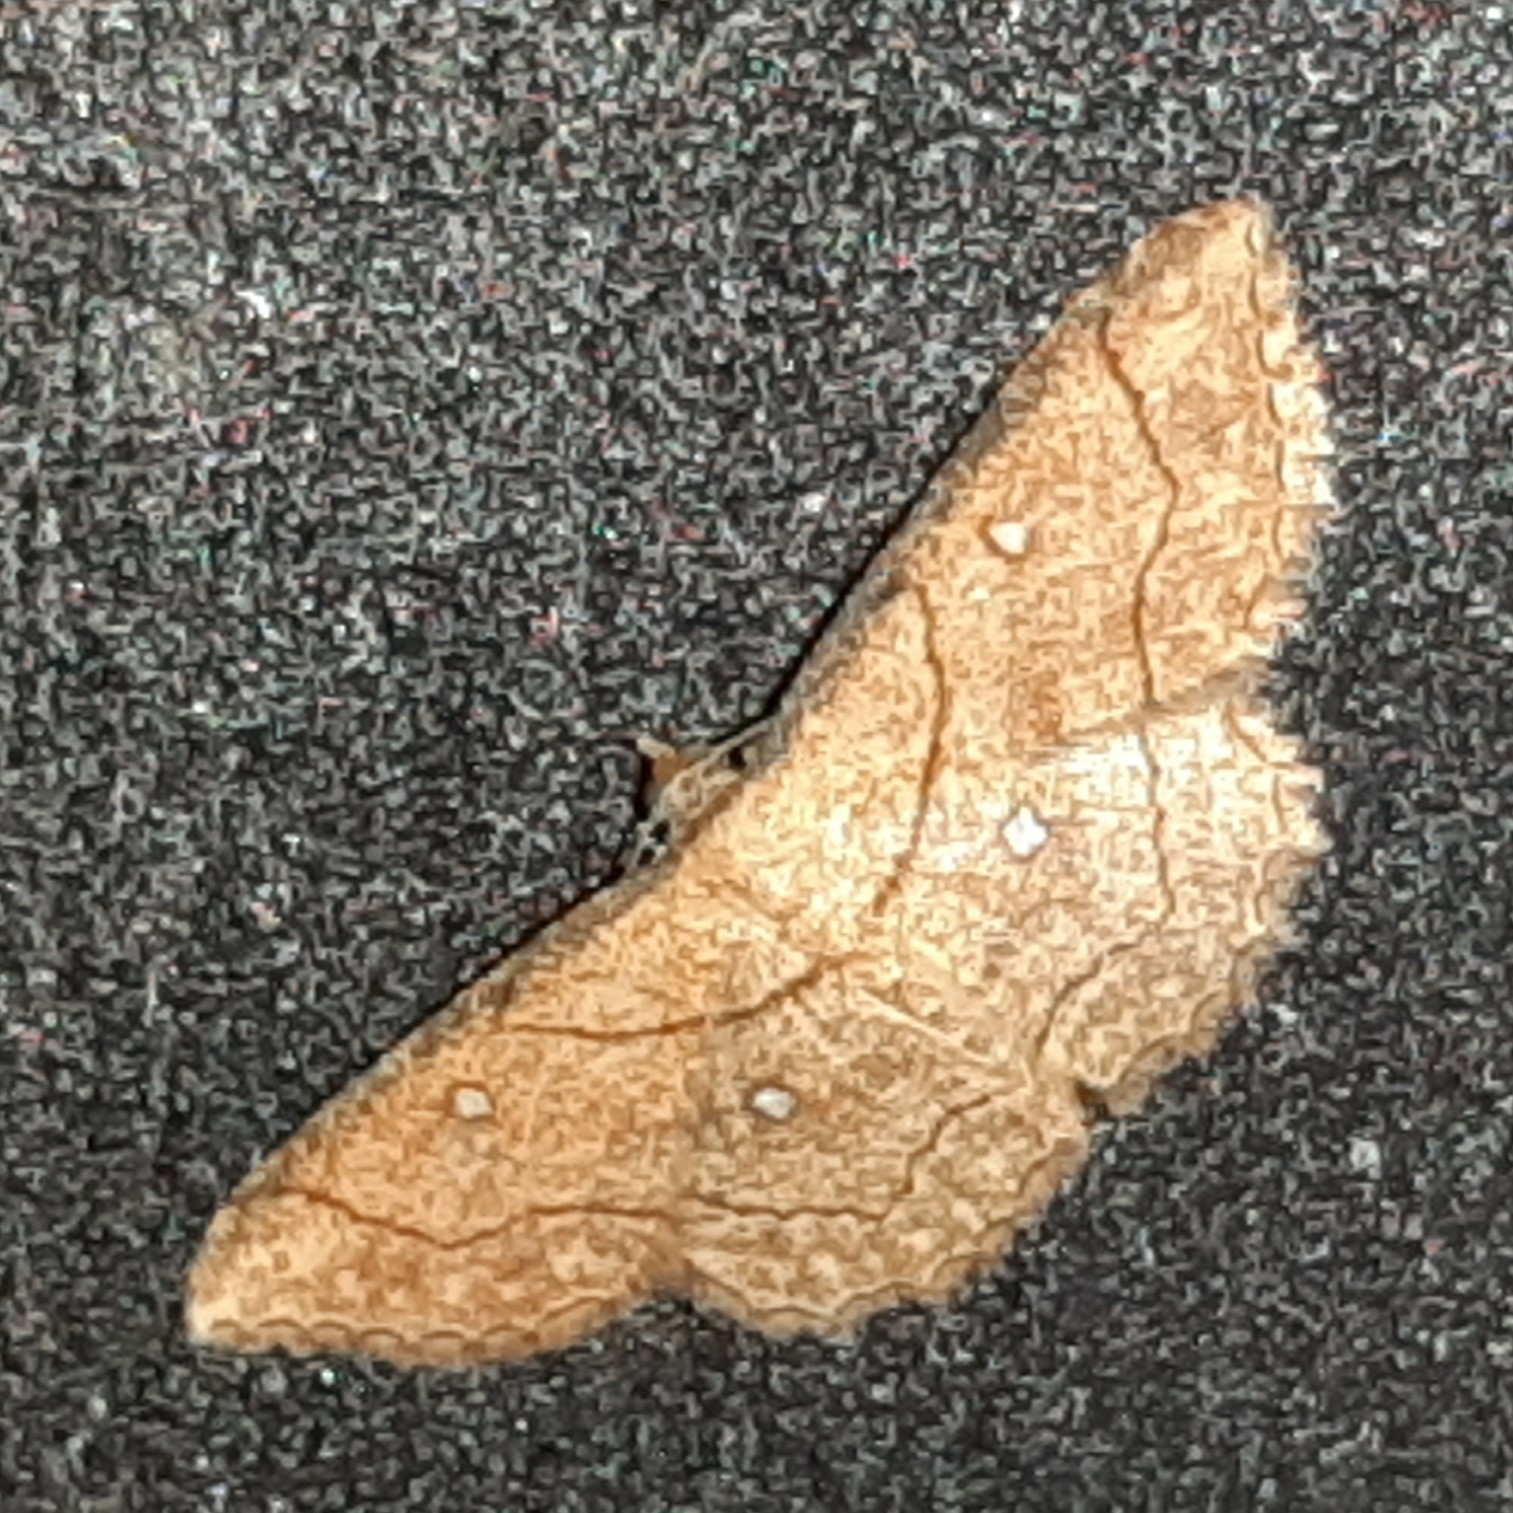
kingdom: Animalia
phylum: Arthropoda
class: Insecta
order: Lepidoptera
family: Geometridae
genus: Cyclophora
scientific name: Cyclophora coecaria
